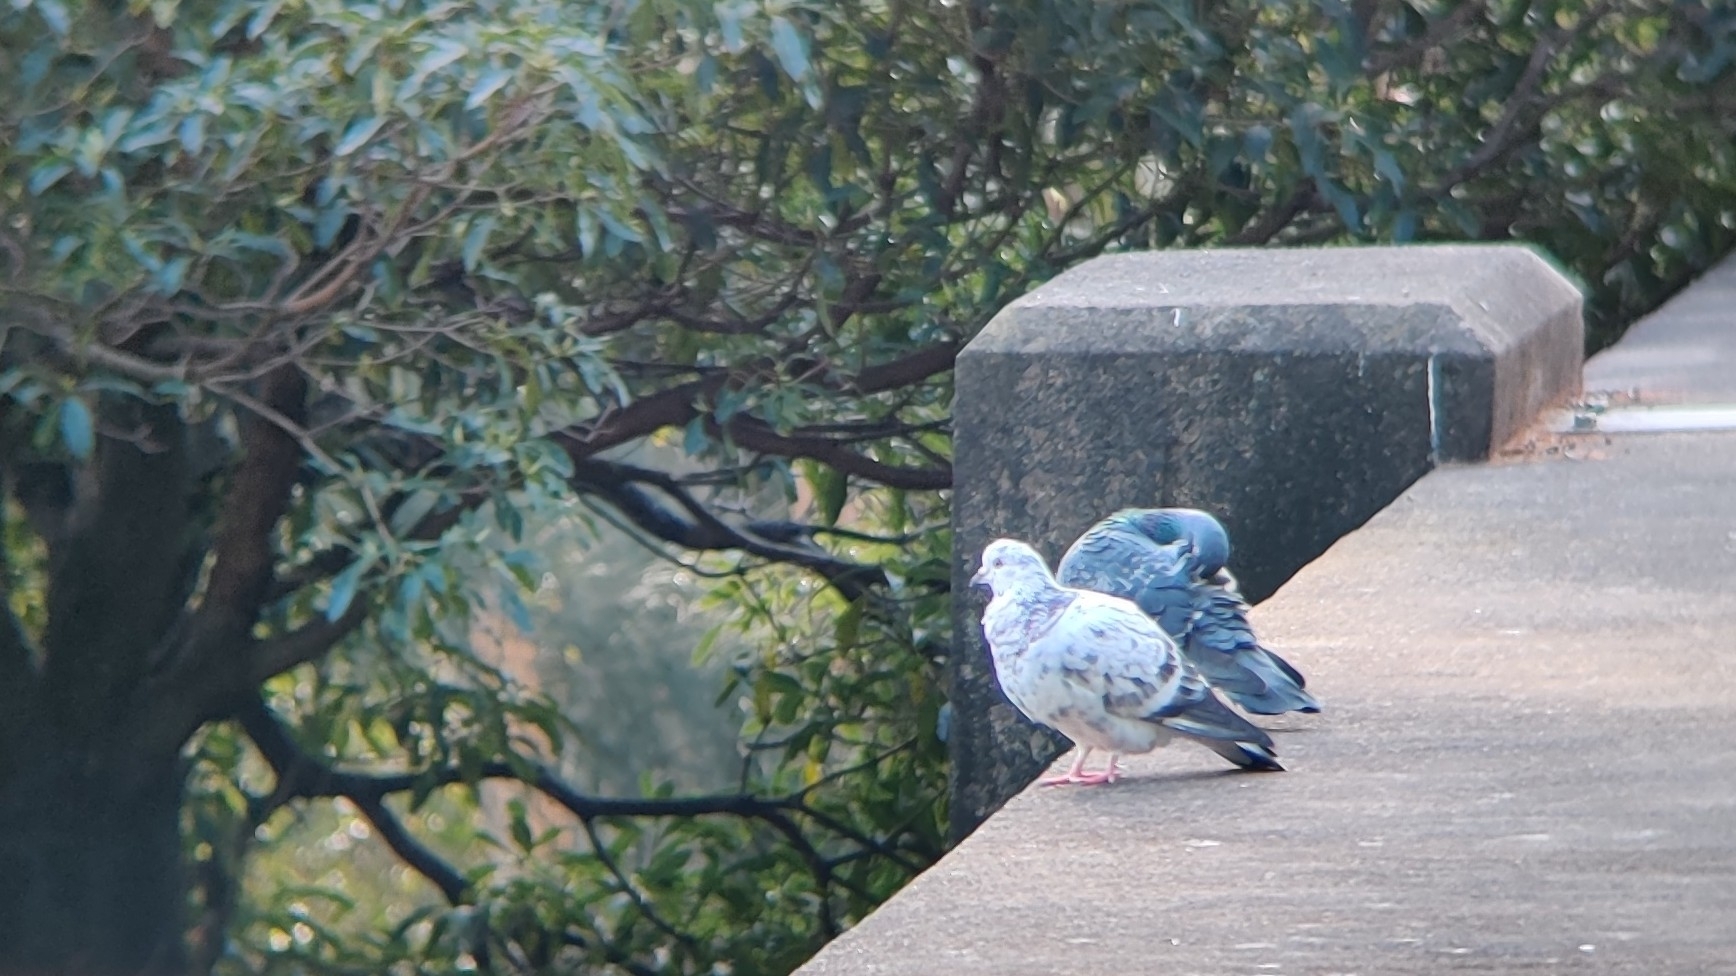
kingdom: Animalia
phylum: Chordata
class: Aves
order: Columbiformes
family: Columbidae
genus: Columba
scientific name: Columba livia
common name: Rock pigeon
